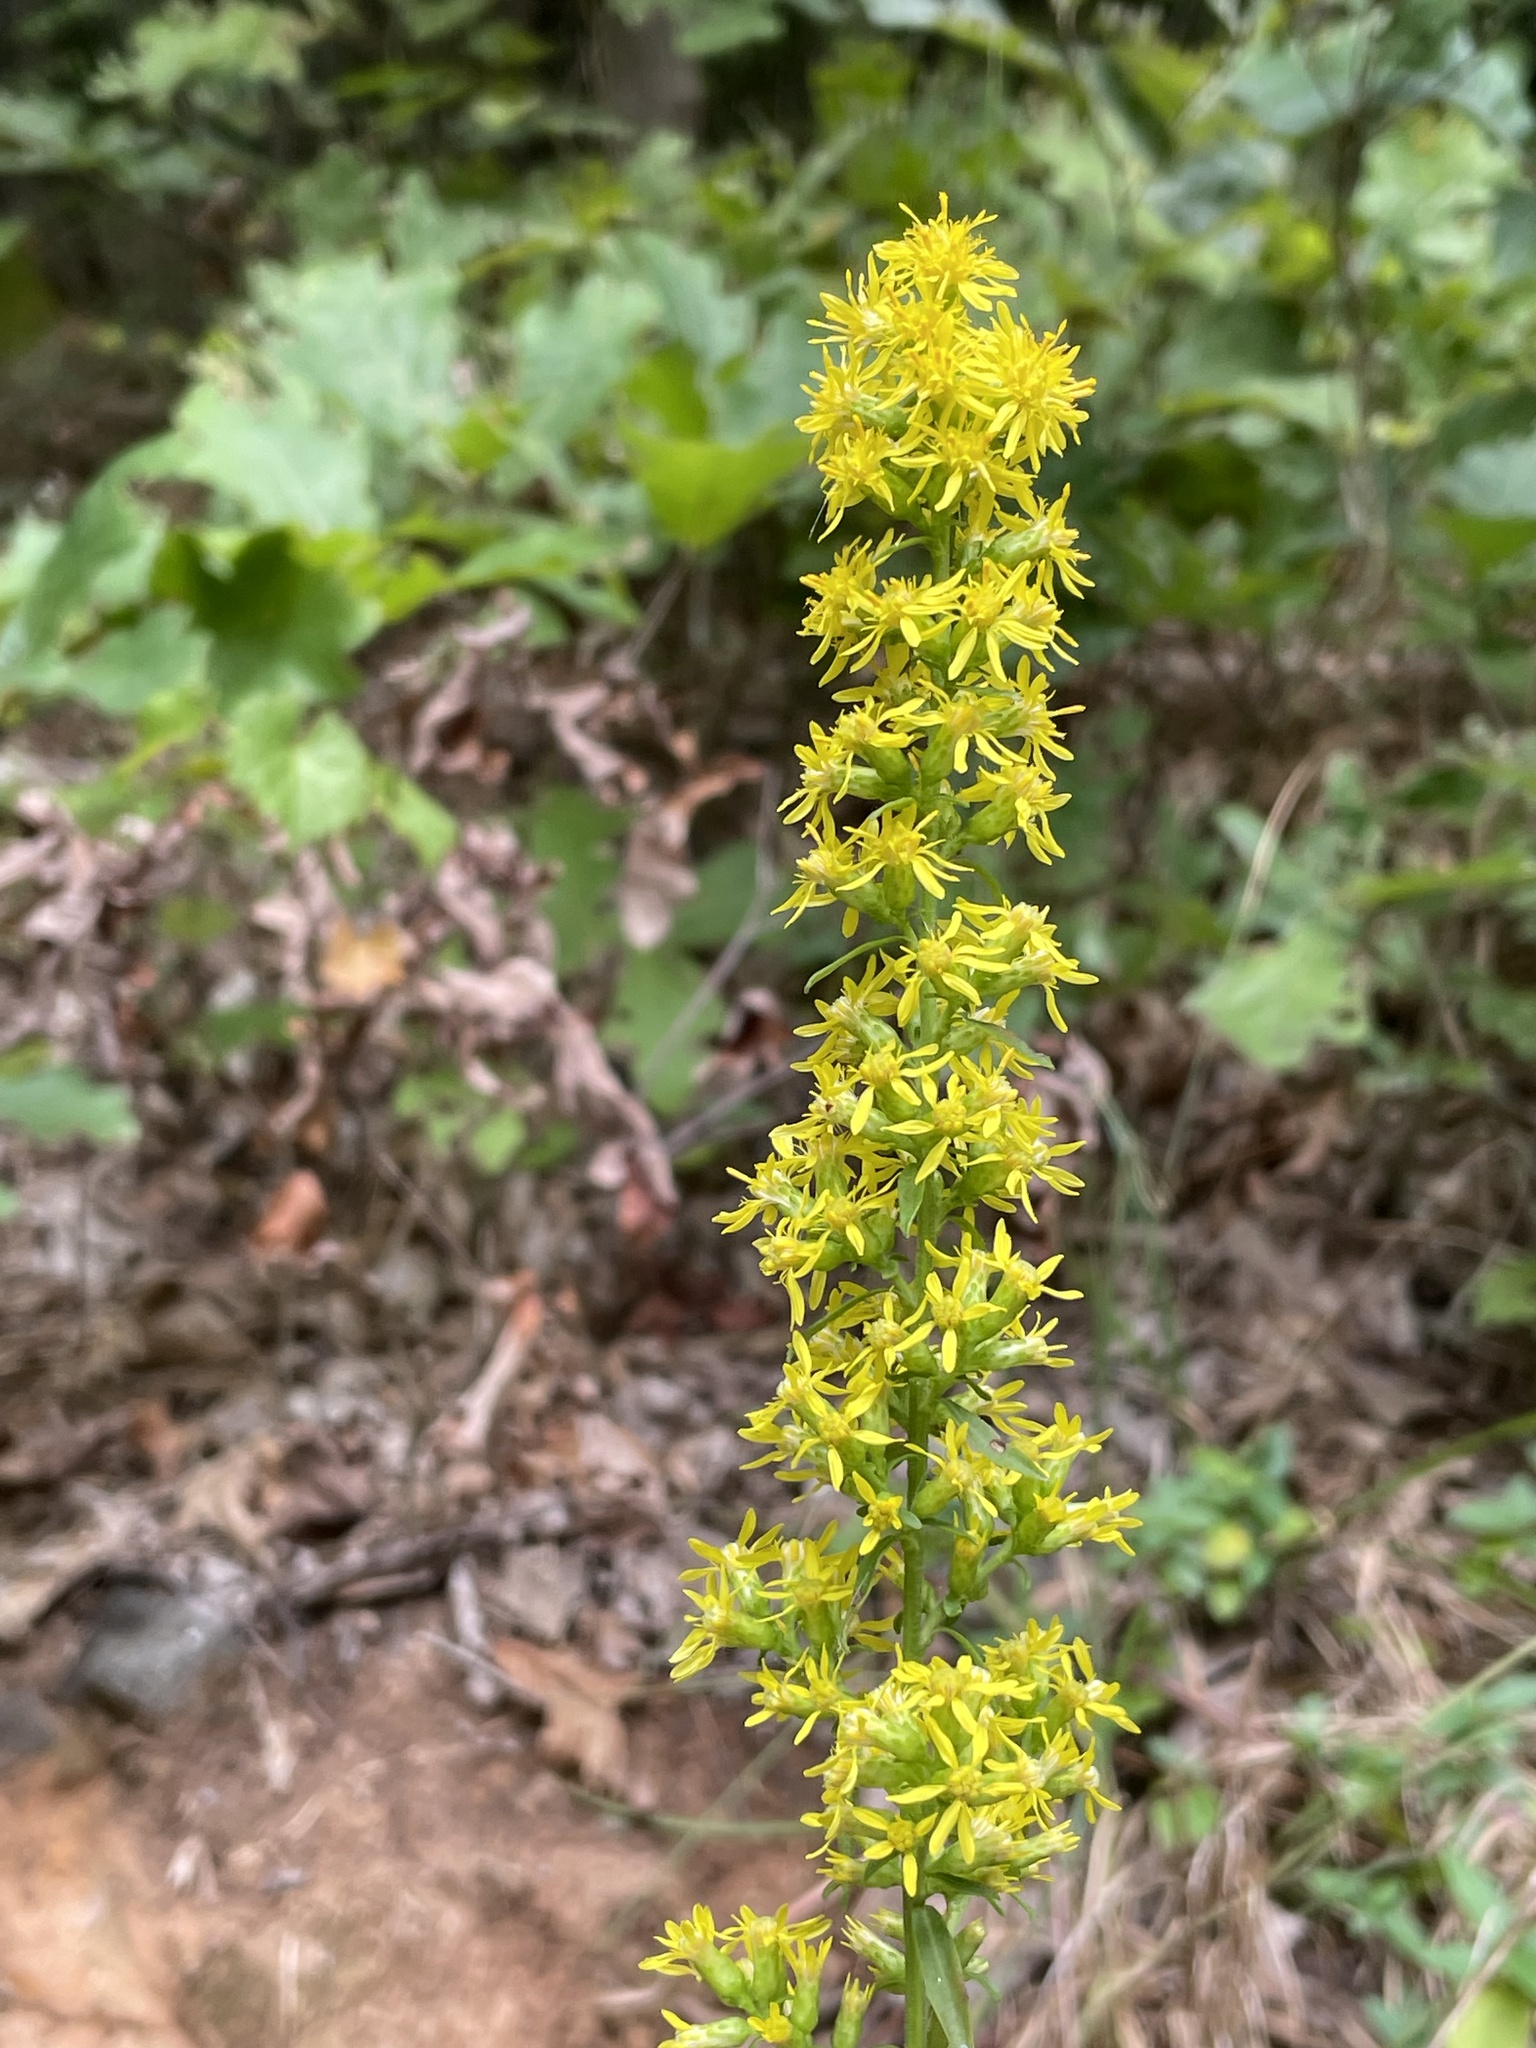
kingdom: Plantae
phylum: Tracheophyta
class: Magnoliopsida
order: Asterales
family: Asteraceae
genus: Solidago
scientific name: Solidago erecta
